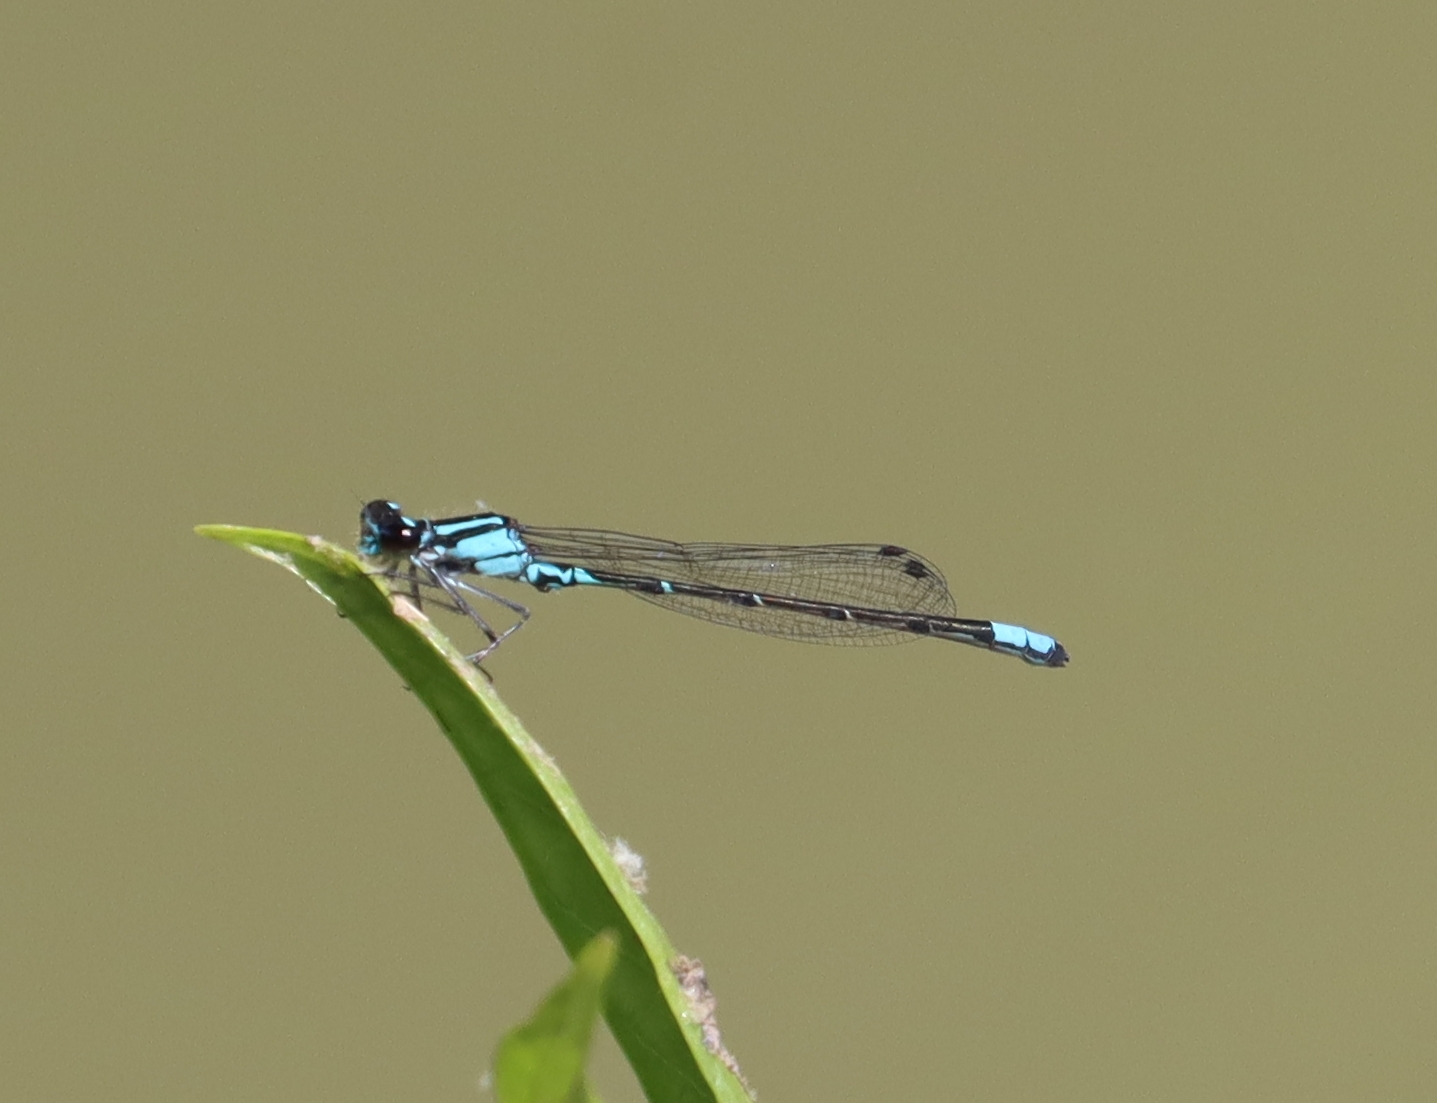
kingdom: Animalia
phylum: Arthropoda
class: Insecta
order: Odonata
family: Coenagrionidae
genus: Enallagma
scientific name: Enallagma geminatum
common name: Skimming bluet
